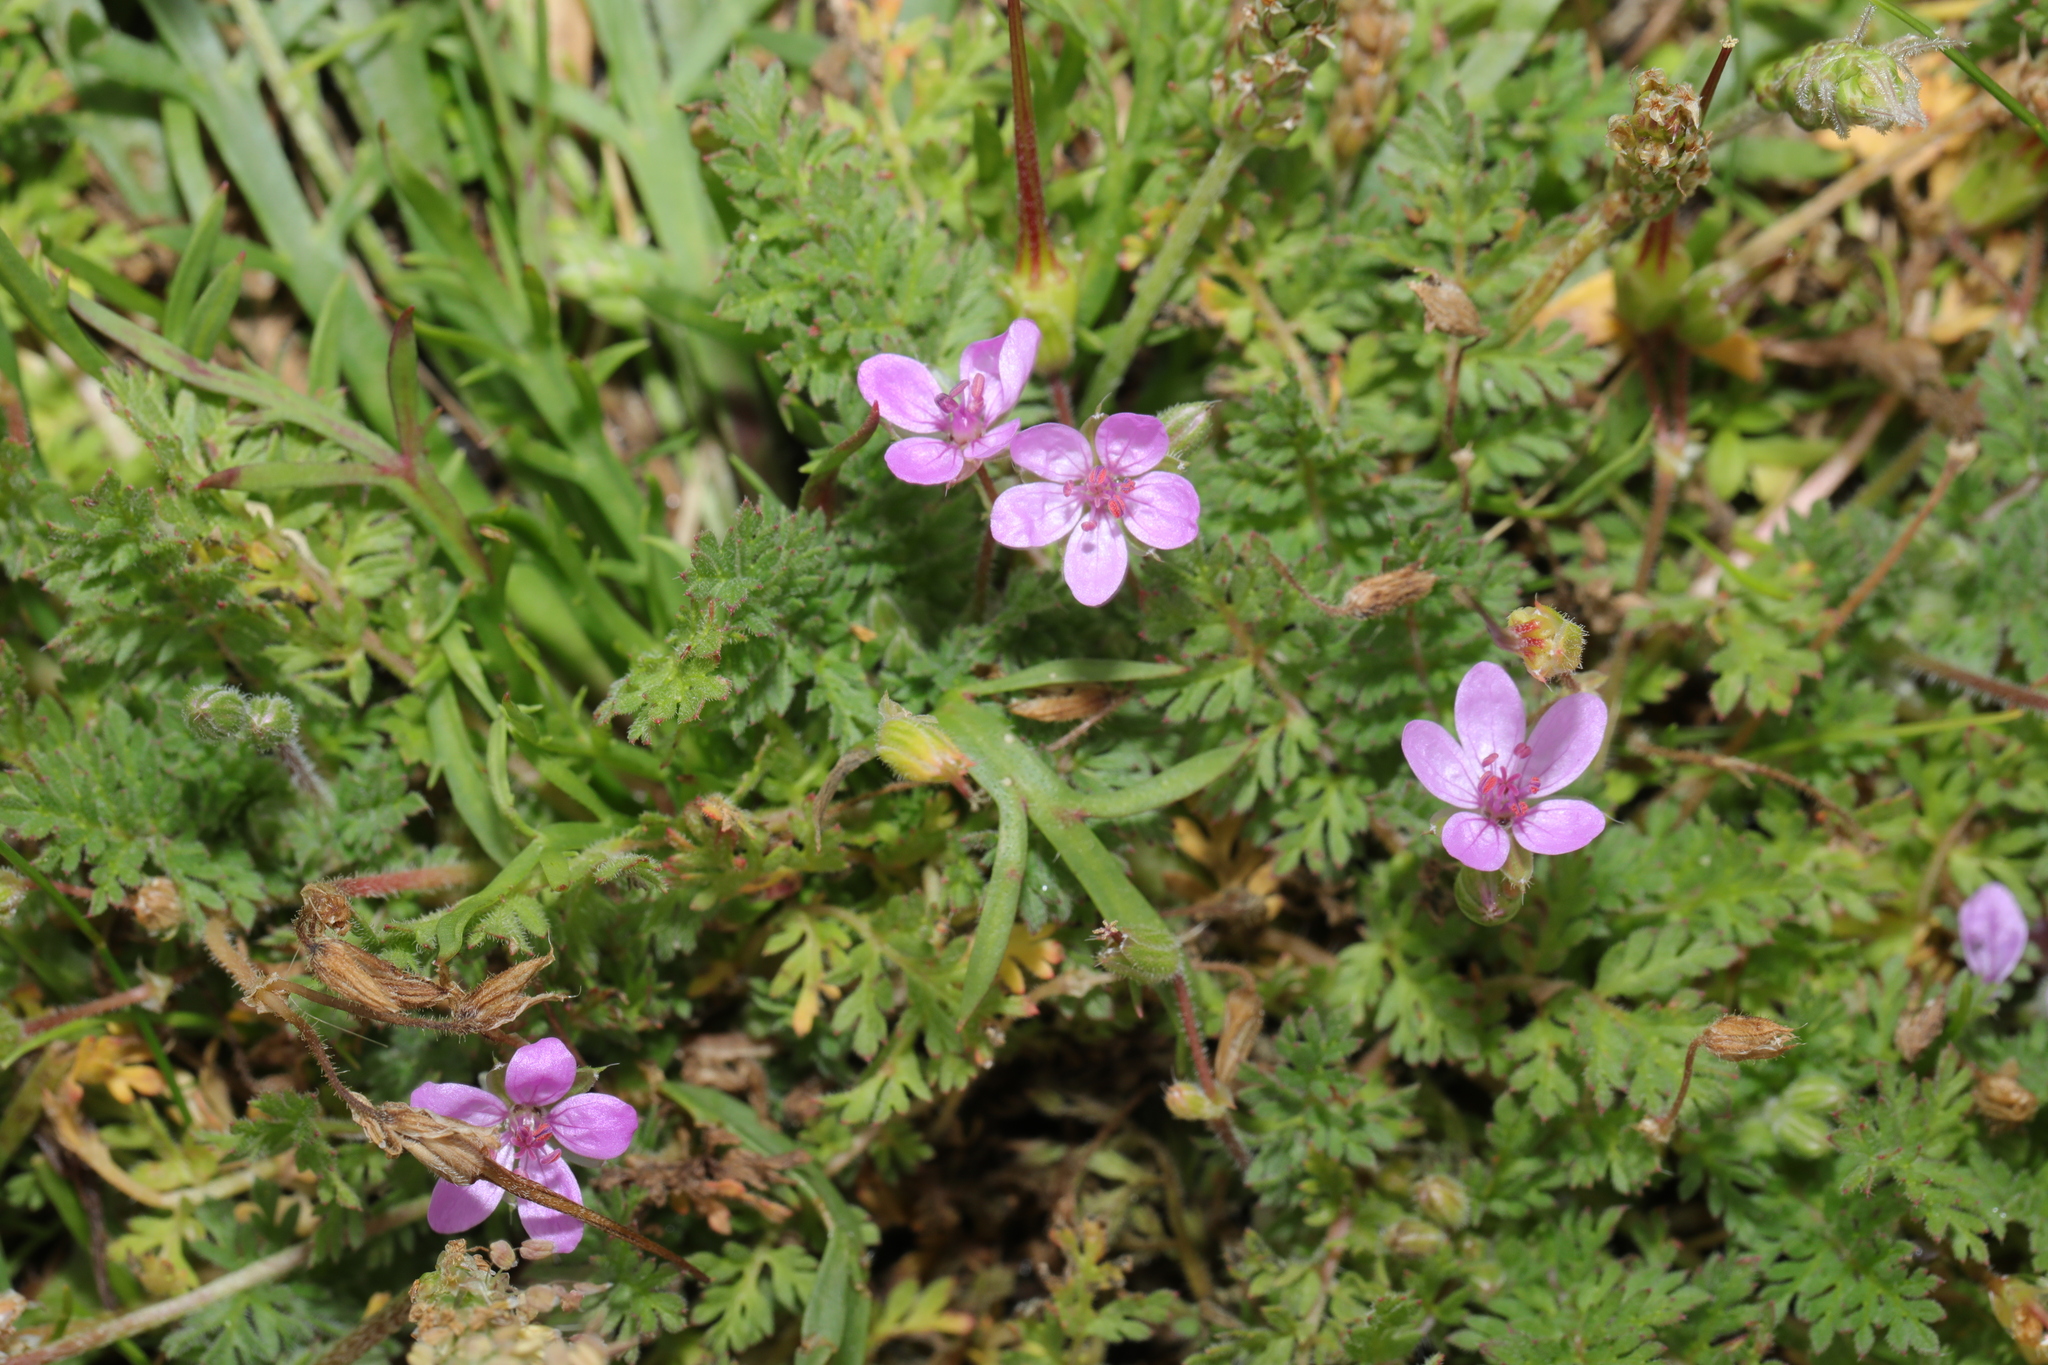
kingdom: Plantae
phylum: Tracheophyta
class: Magnoliopsida
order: Geraniales
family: Geraniaceae
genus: Erodium
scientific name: Erodium cicutarium
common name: Common stork's-bill
